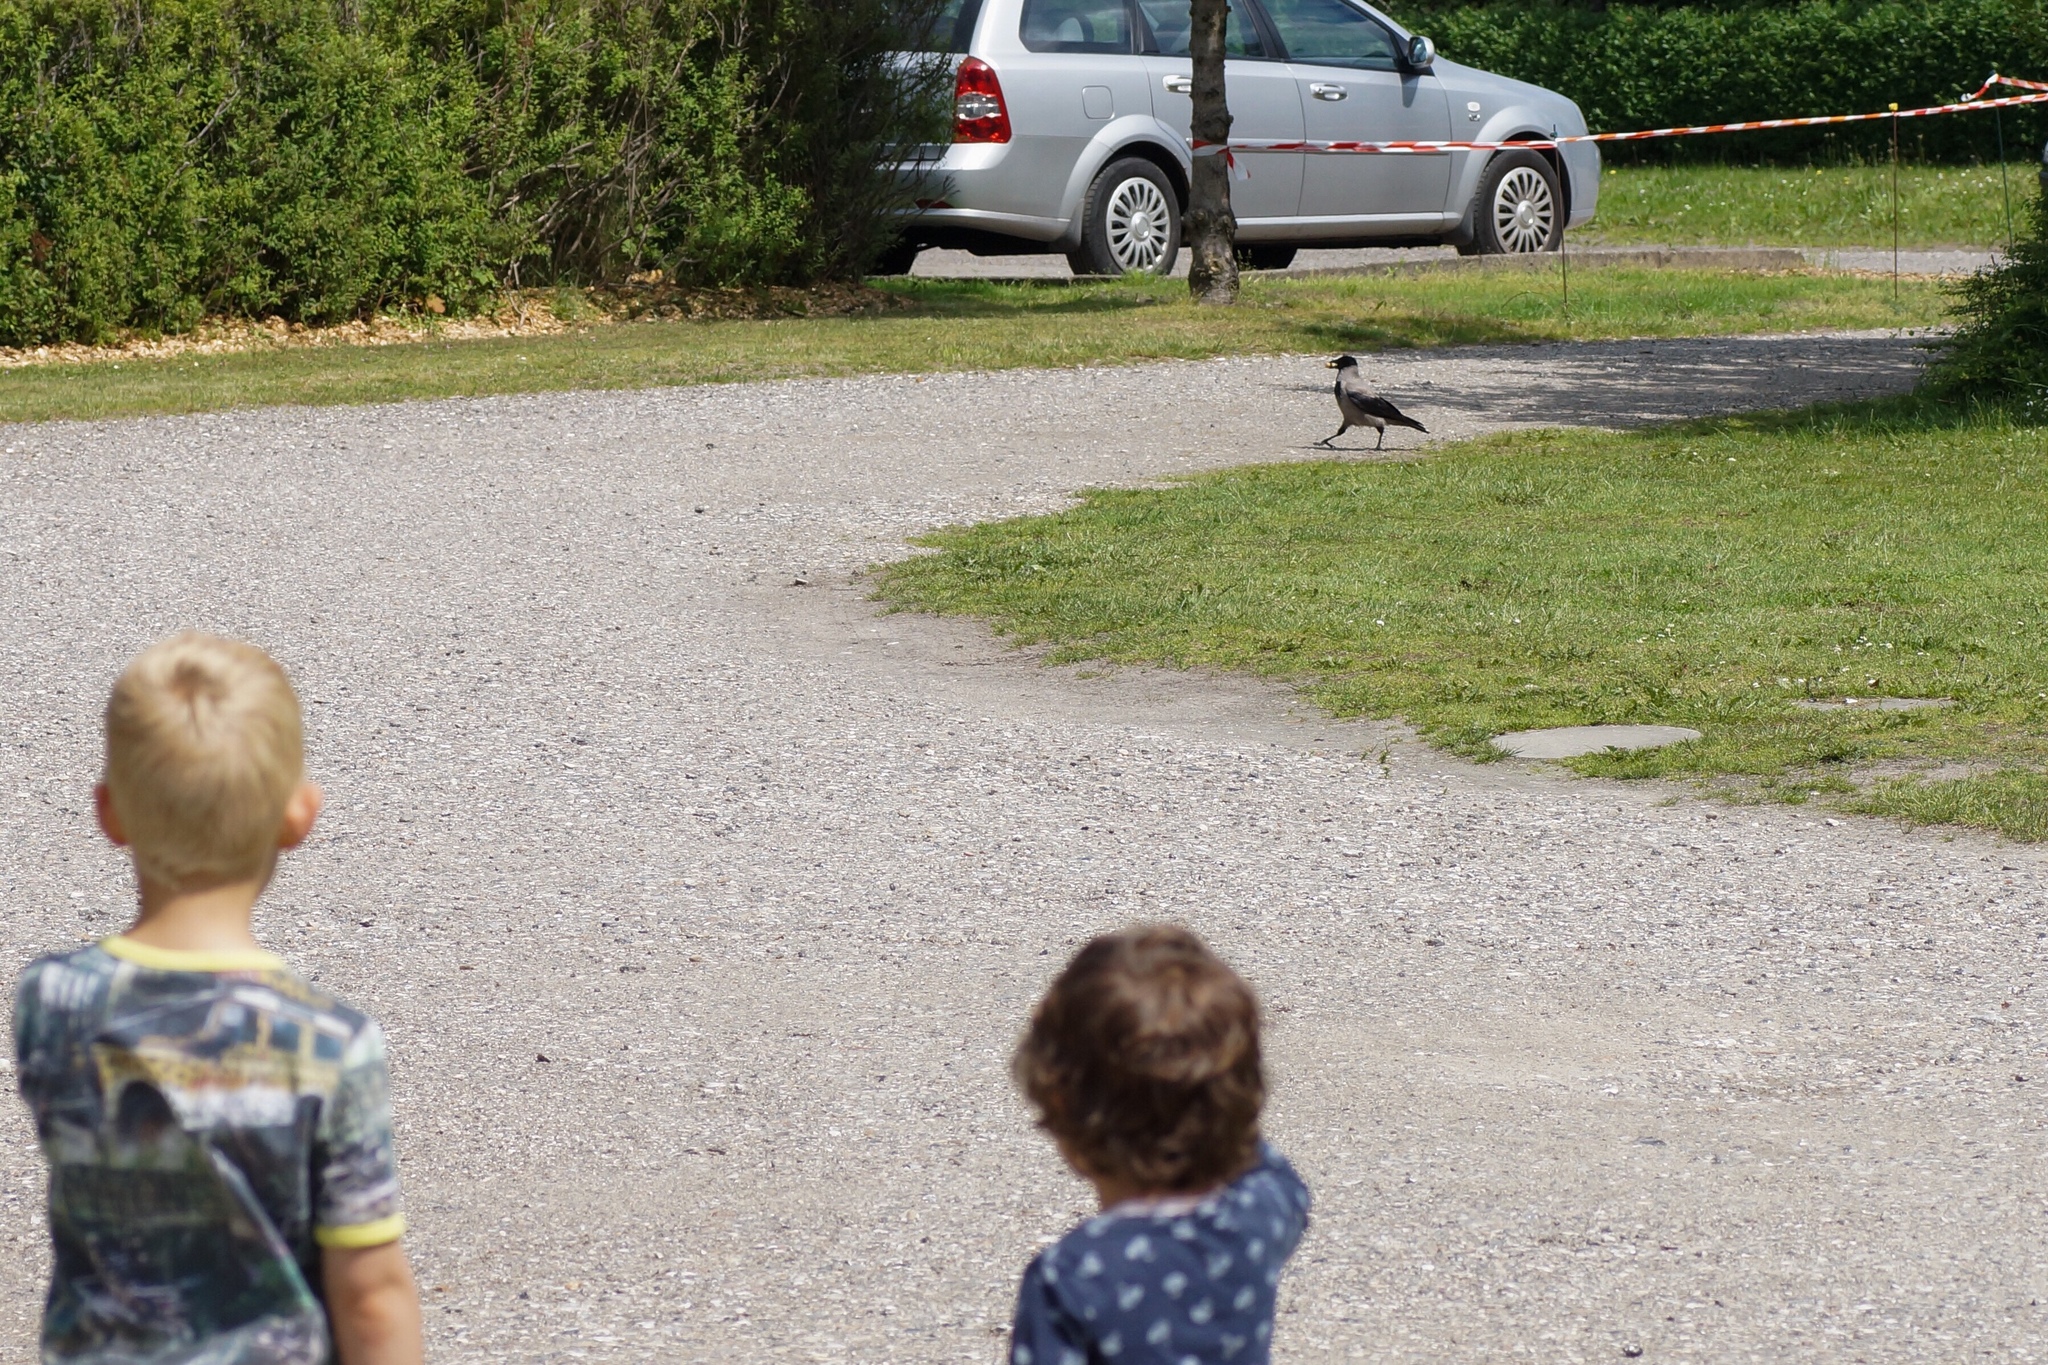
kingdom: Animalia
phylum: Chordata
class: Aves
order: Passeriformes
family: Corvidae
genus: Corvus
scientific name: Corvus cornix
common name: Hooded crow
